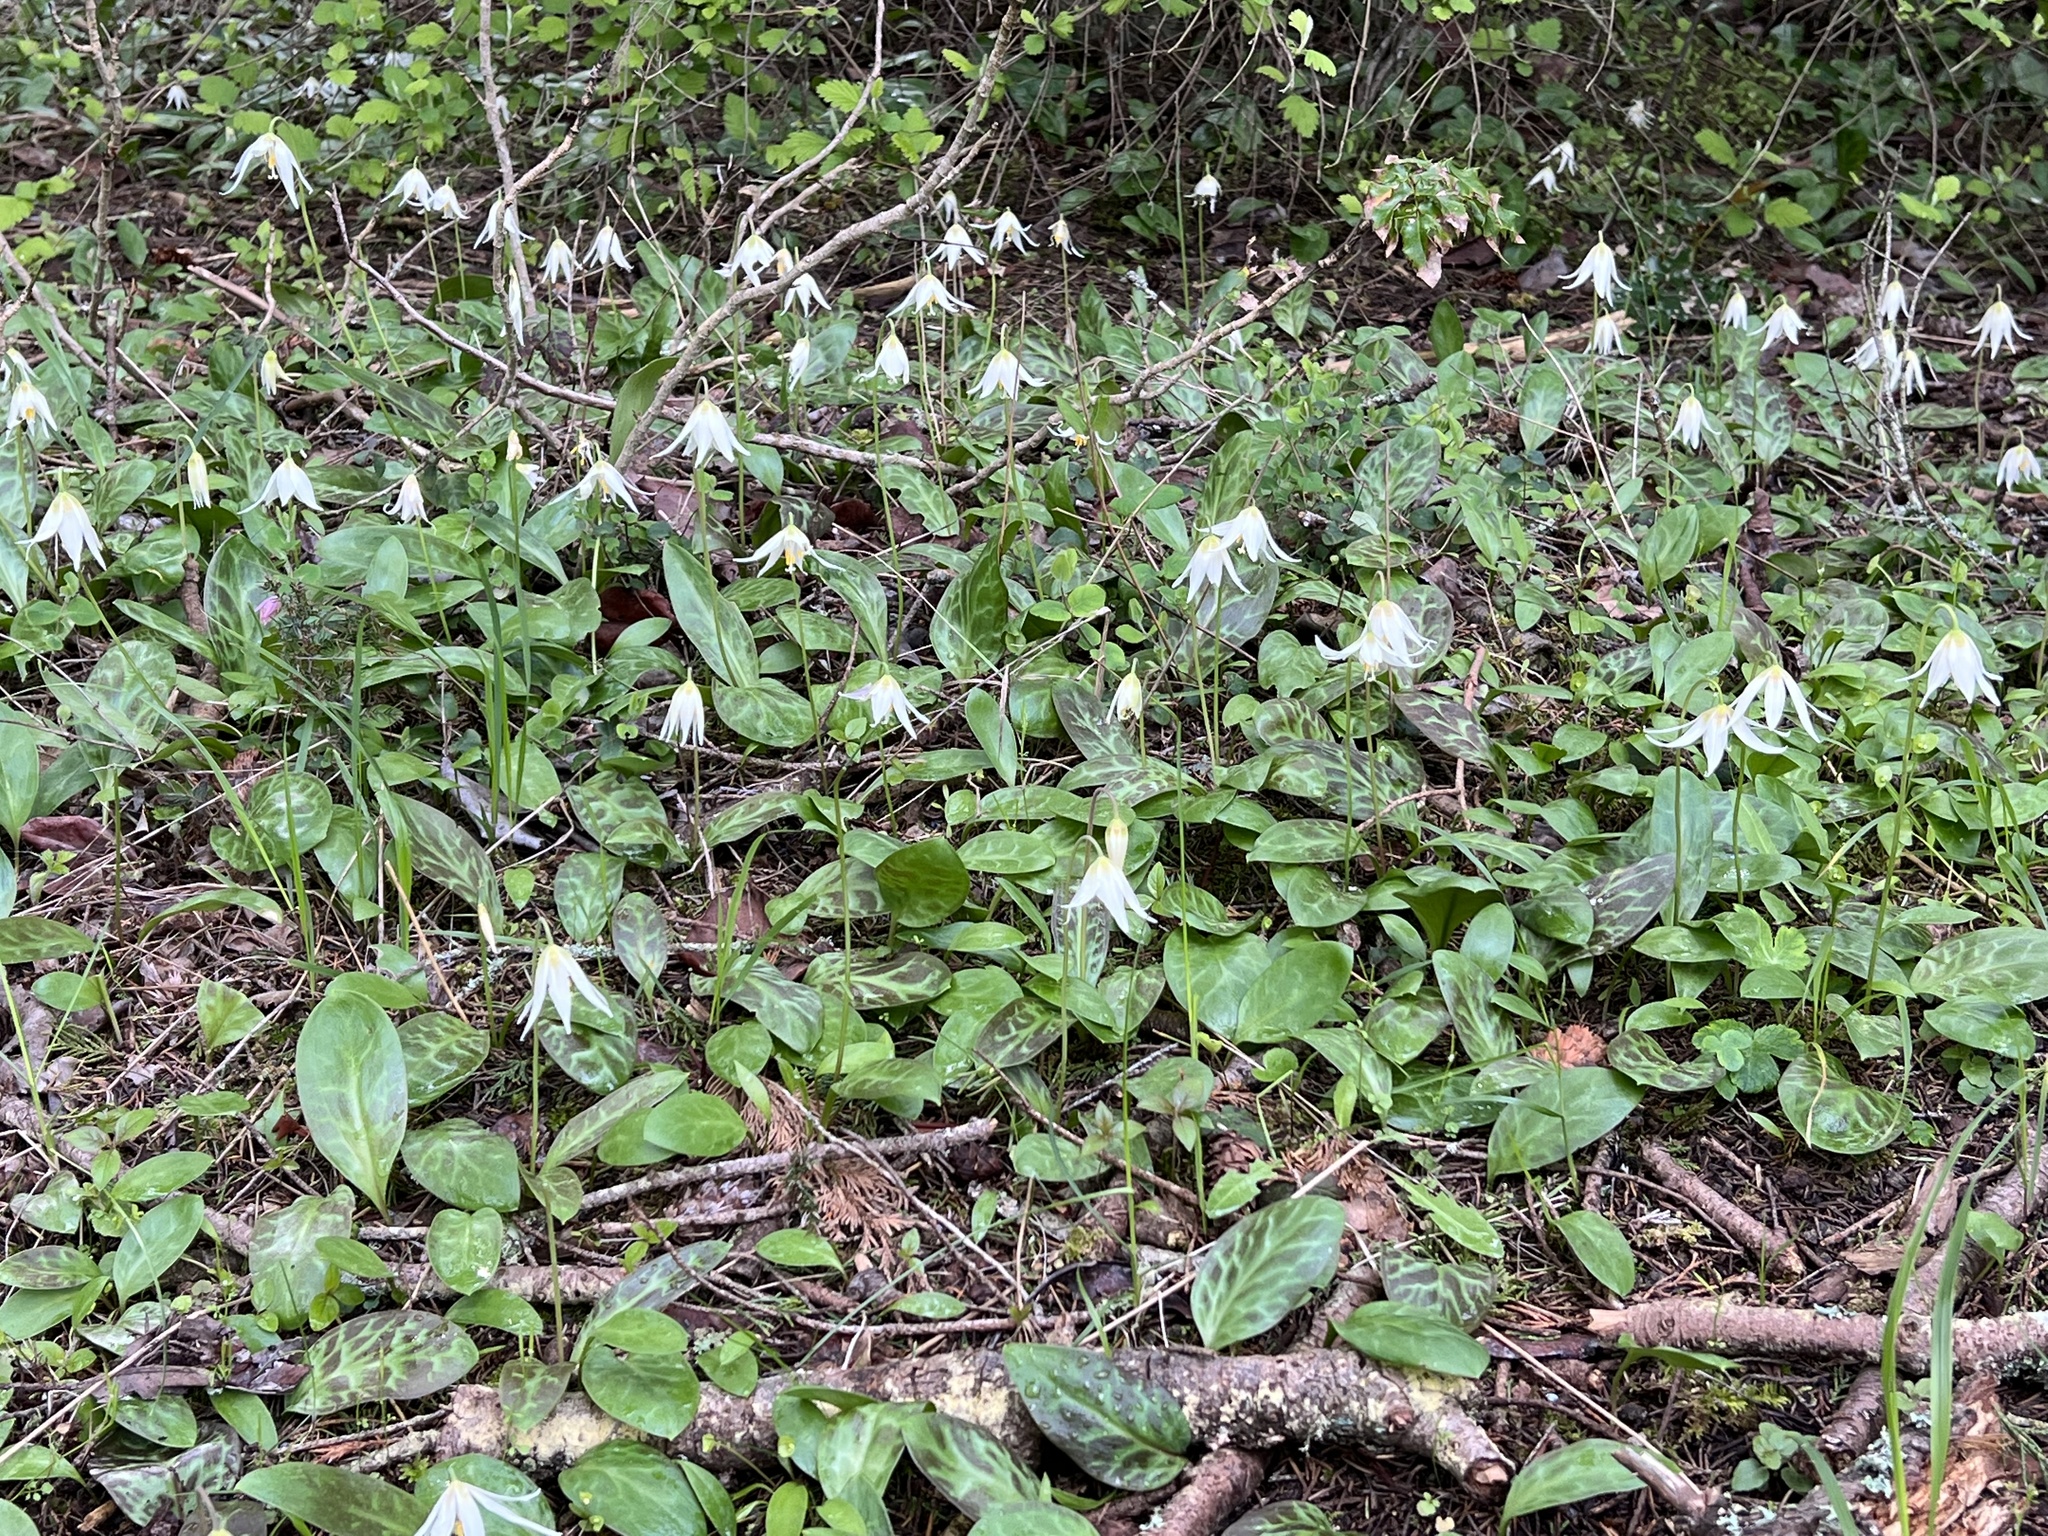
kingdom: Plantae
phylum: Tracheophyta
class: Liliopsida
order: Liliales
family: Liliaceae
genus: Erythronium
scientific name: Erythronium oregonum
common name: Giant adder's-tongue
